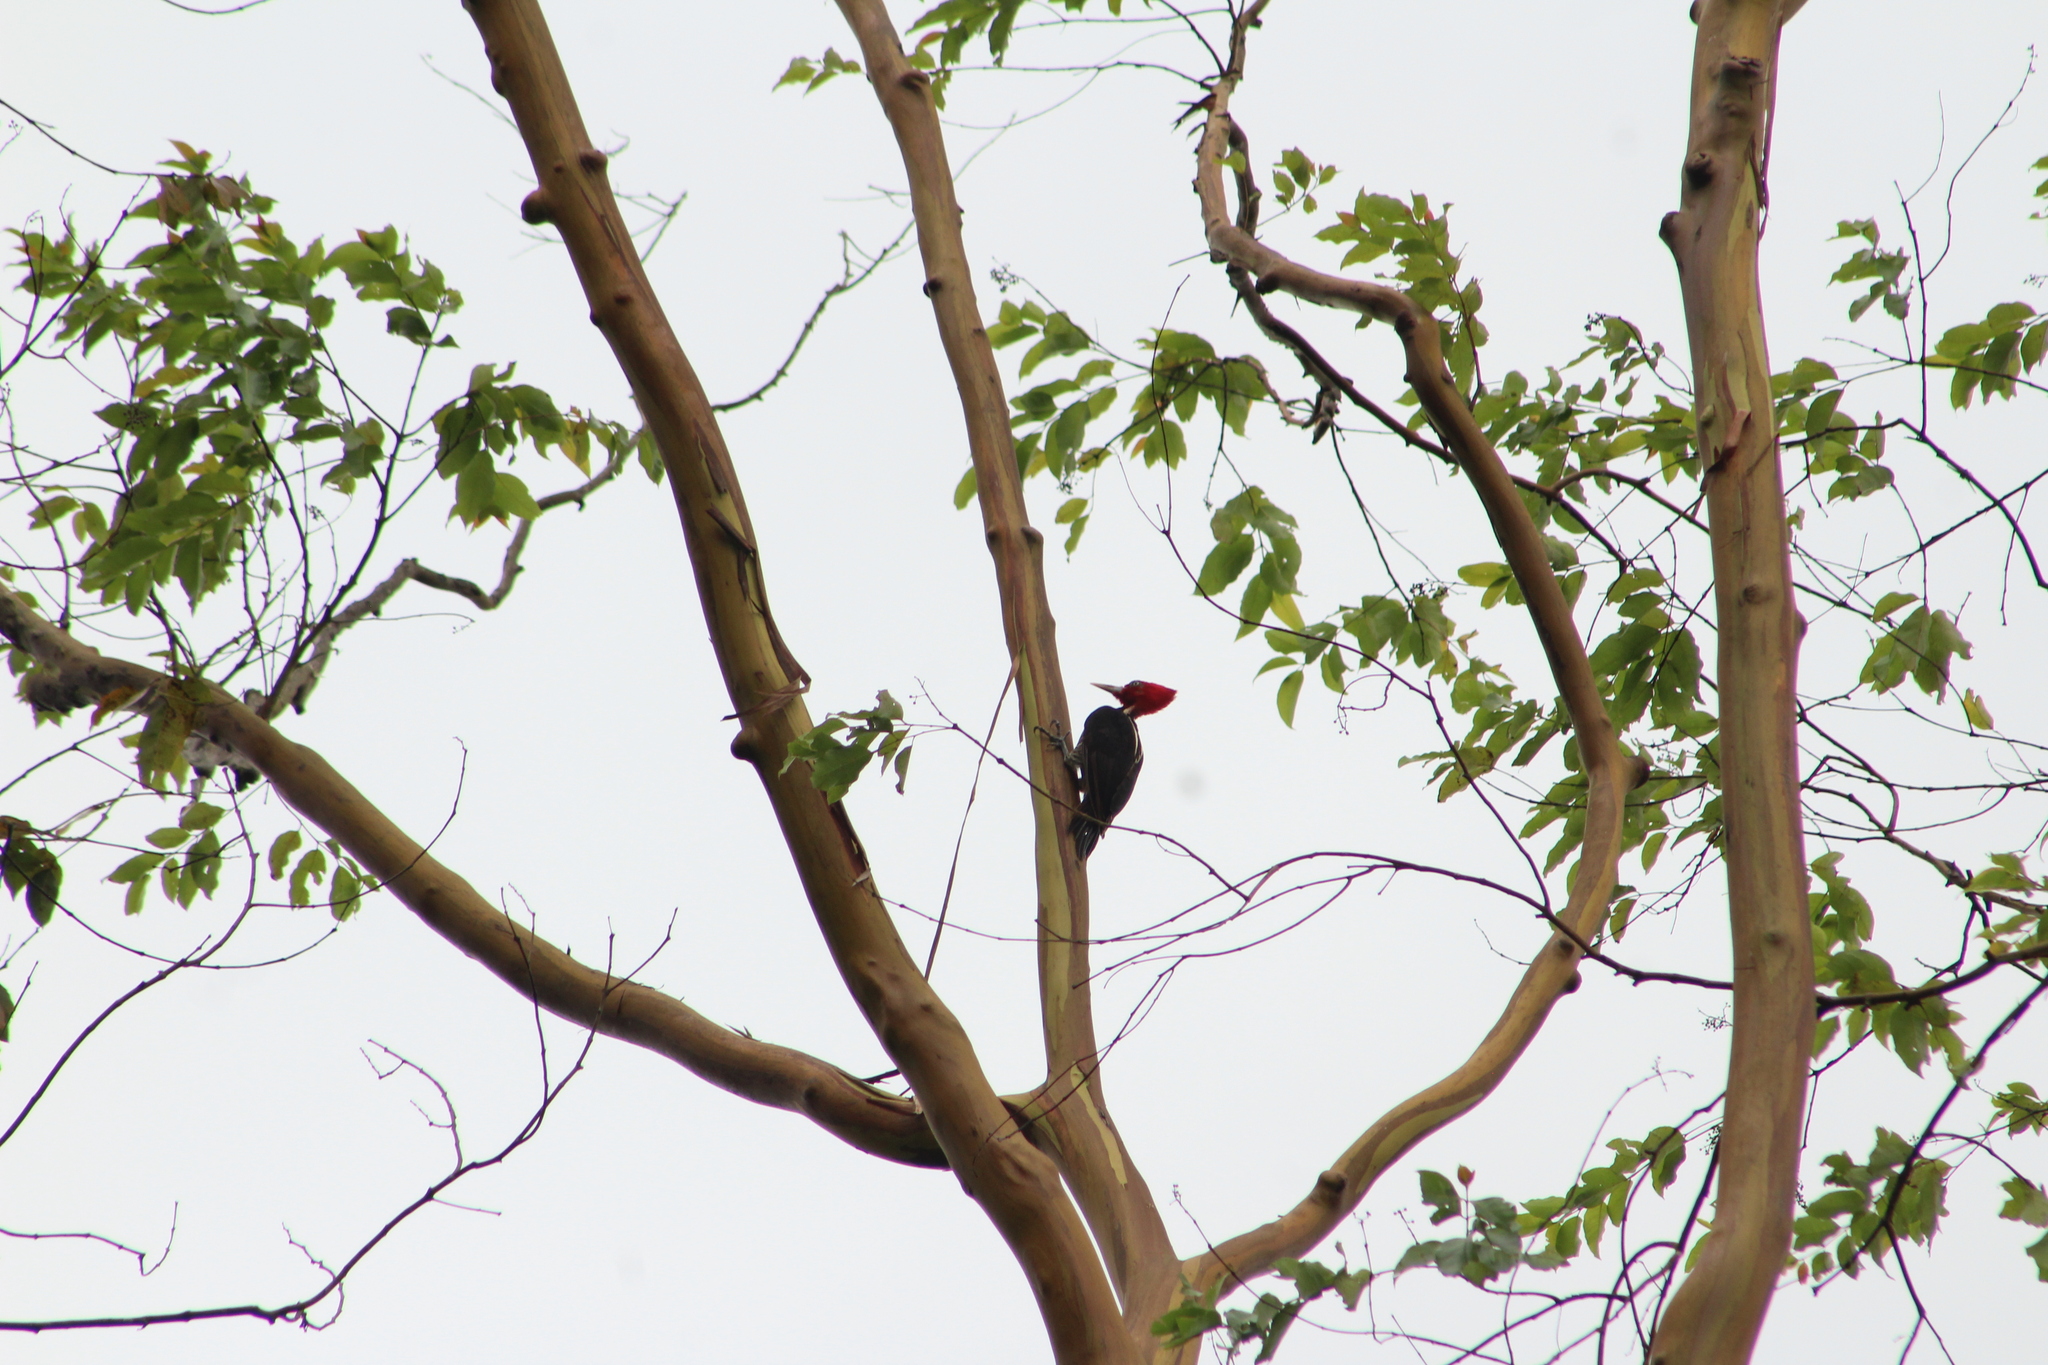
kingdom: Animalia
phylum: Chordata
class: Aves
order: Piciformes
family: Picidae
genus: Campephilus
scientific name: Campephilus guatemalensis
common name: Pale-billed woodpecker
